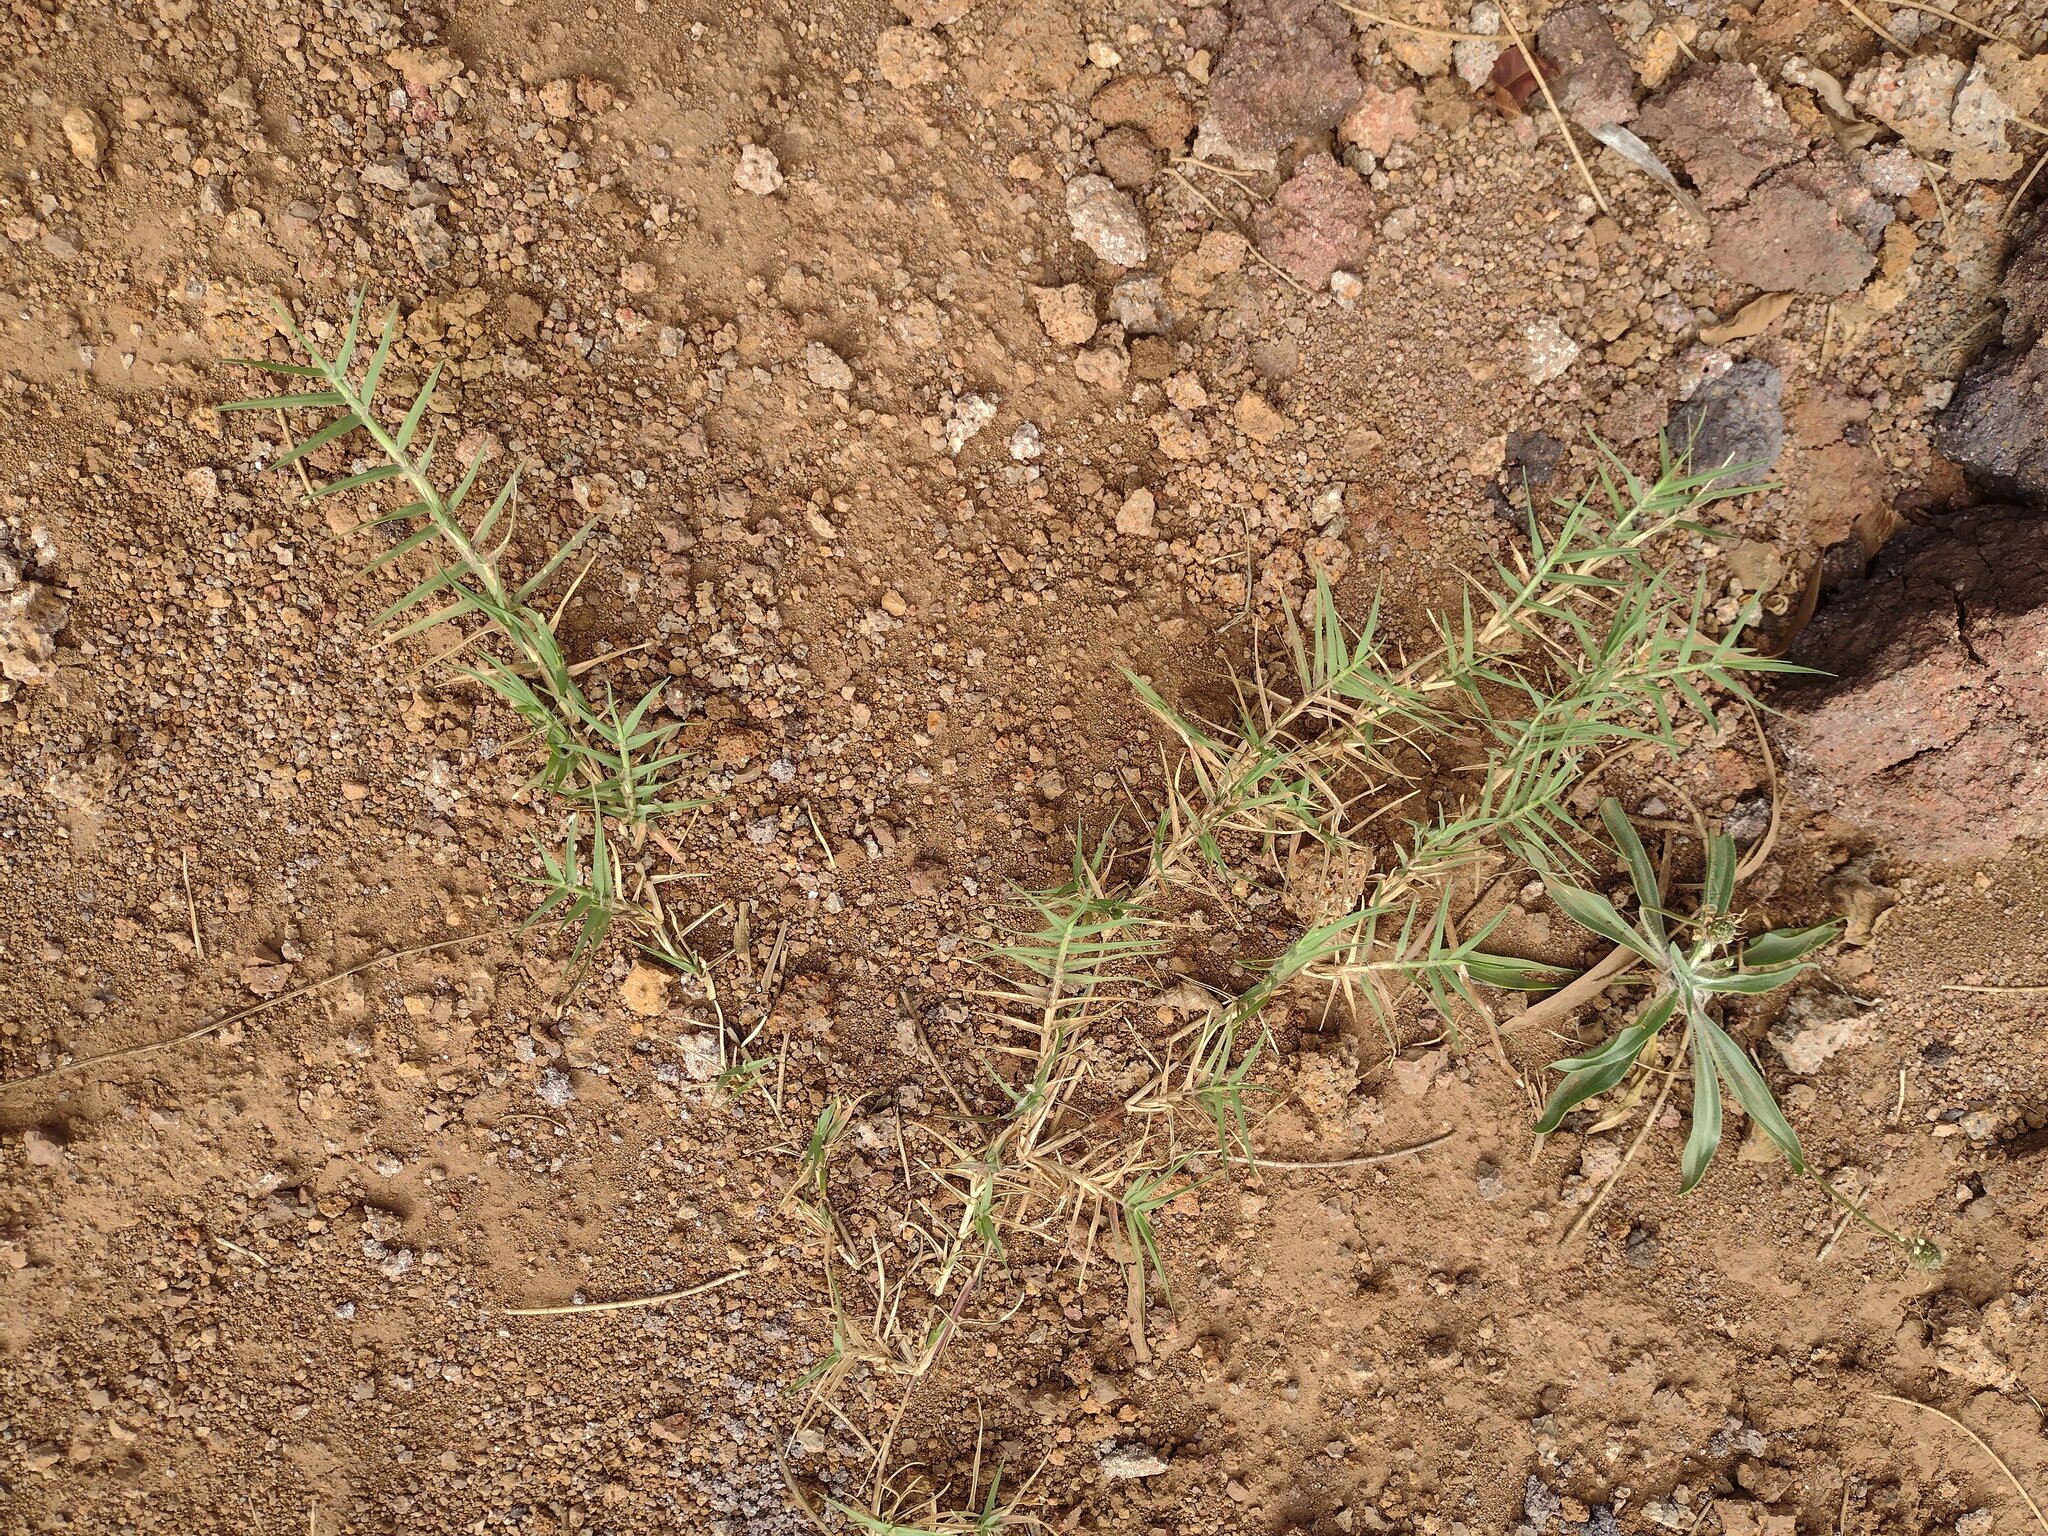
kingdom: Plantae
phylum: Tracheophyta
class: Liliopsida
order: Poales
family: Poaceae
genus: Cynodon
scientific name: Cynodon dactylon
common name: Bermuda grass
